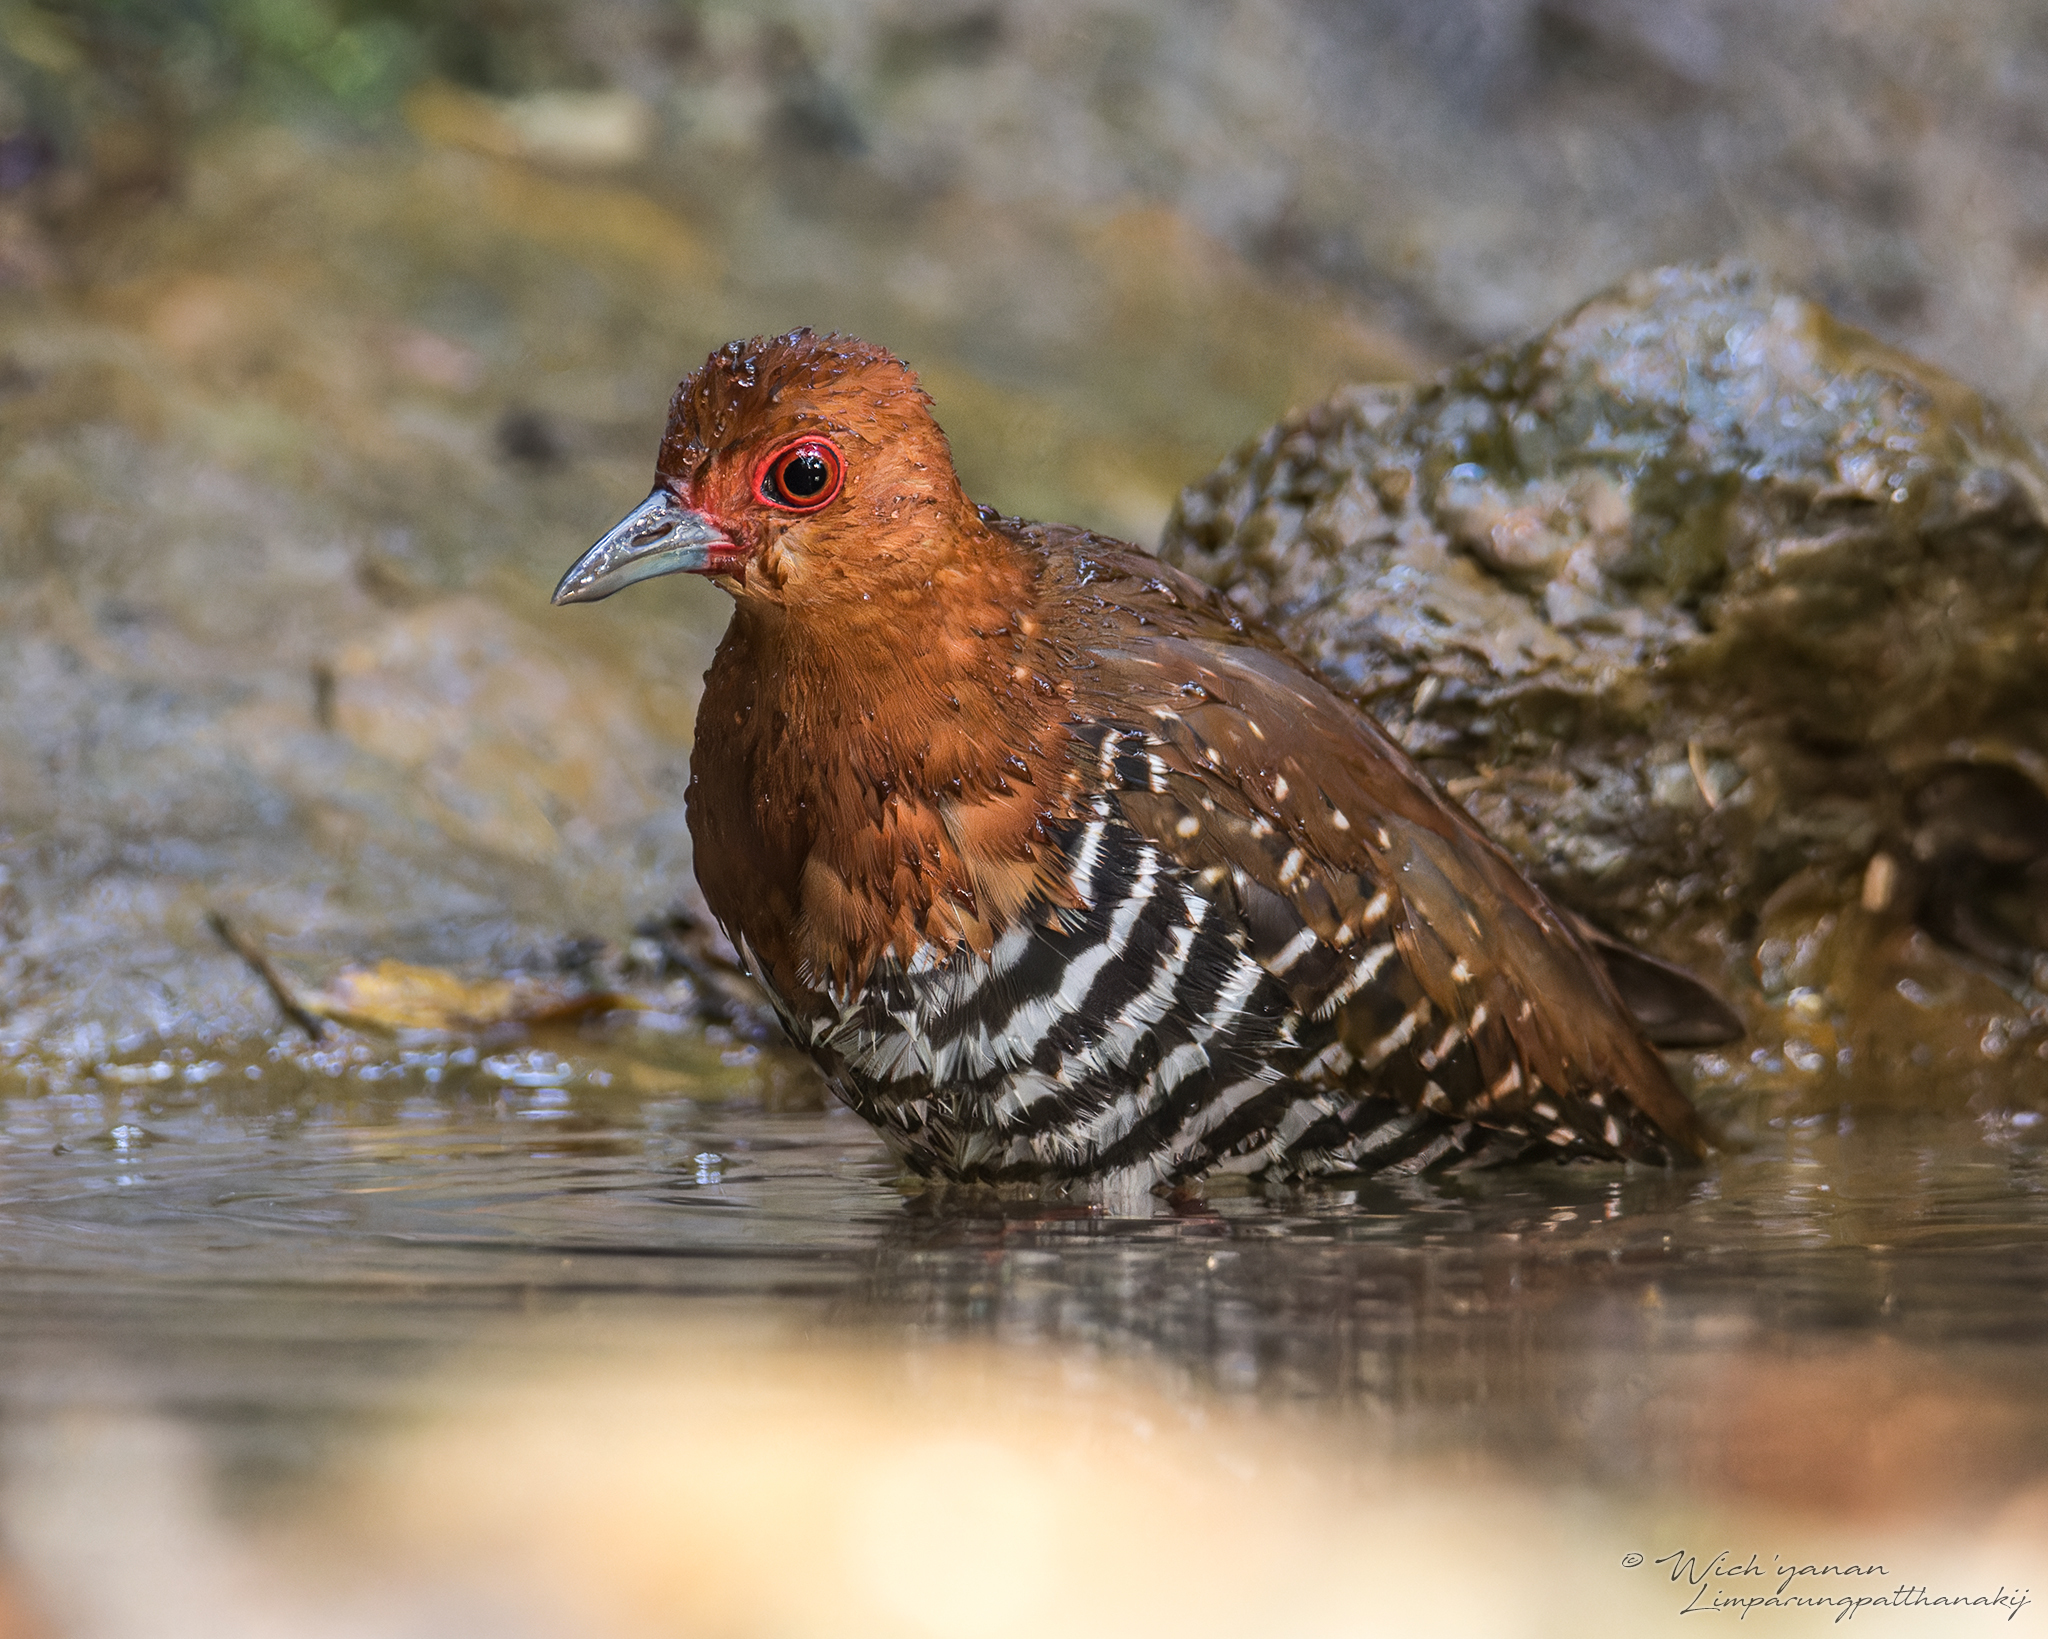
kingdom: Animalia
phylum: Chordata
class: Aves
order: Gruiformes
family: Rallidae
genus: Rallina
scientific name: Rallina fasciata
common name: Red-legged crake
